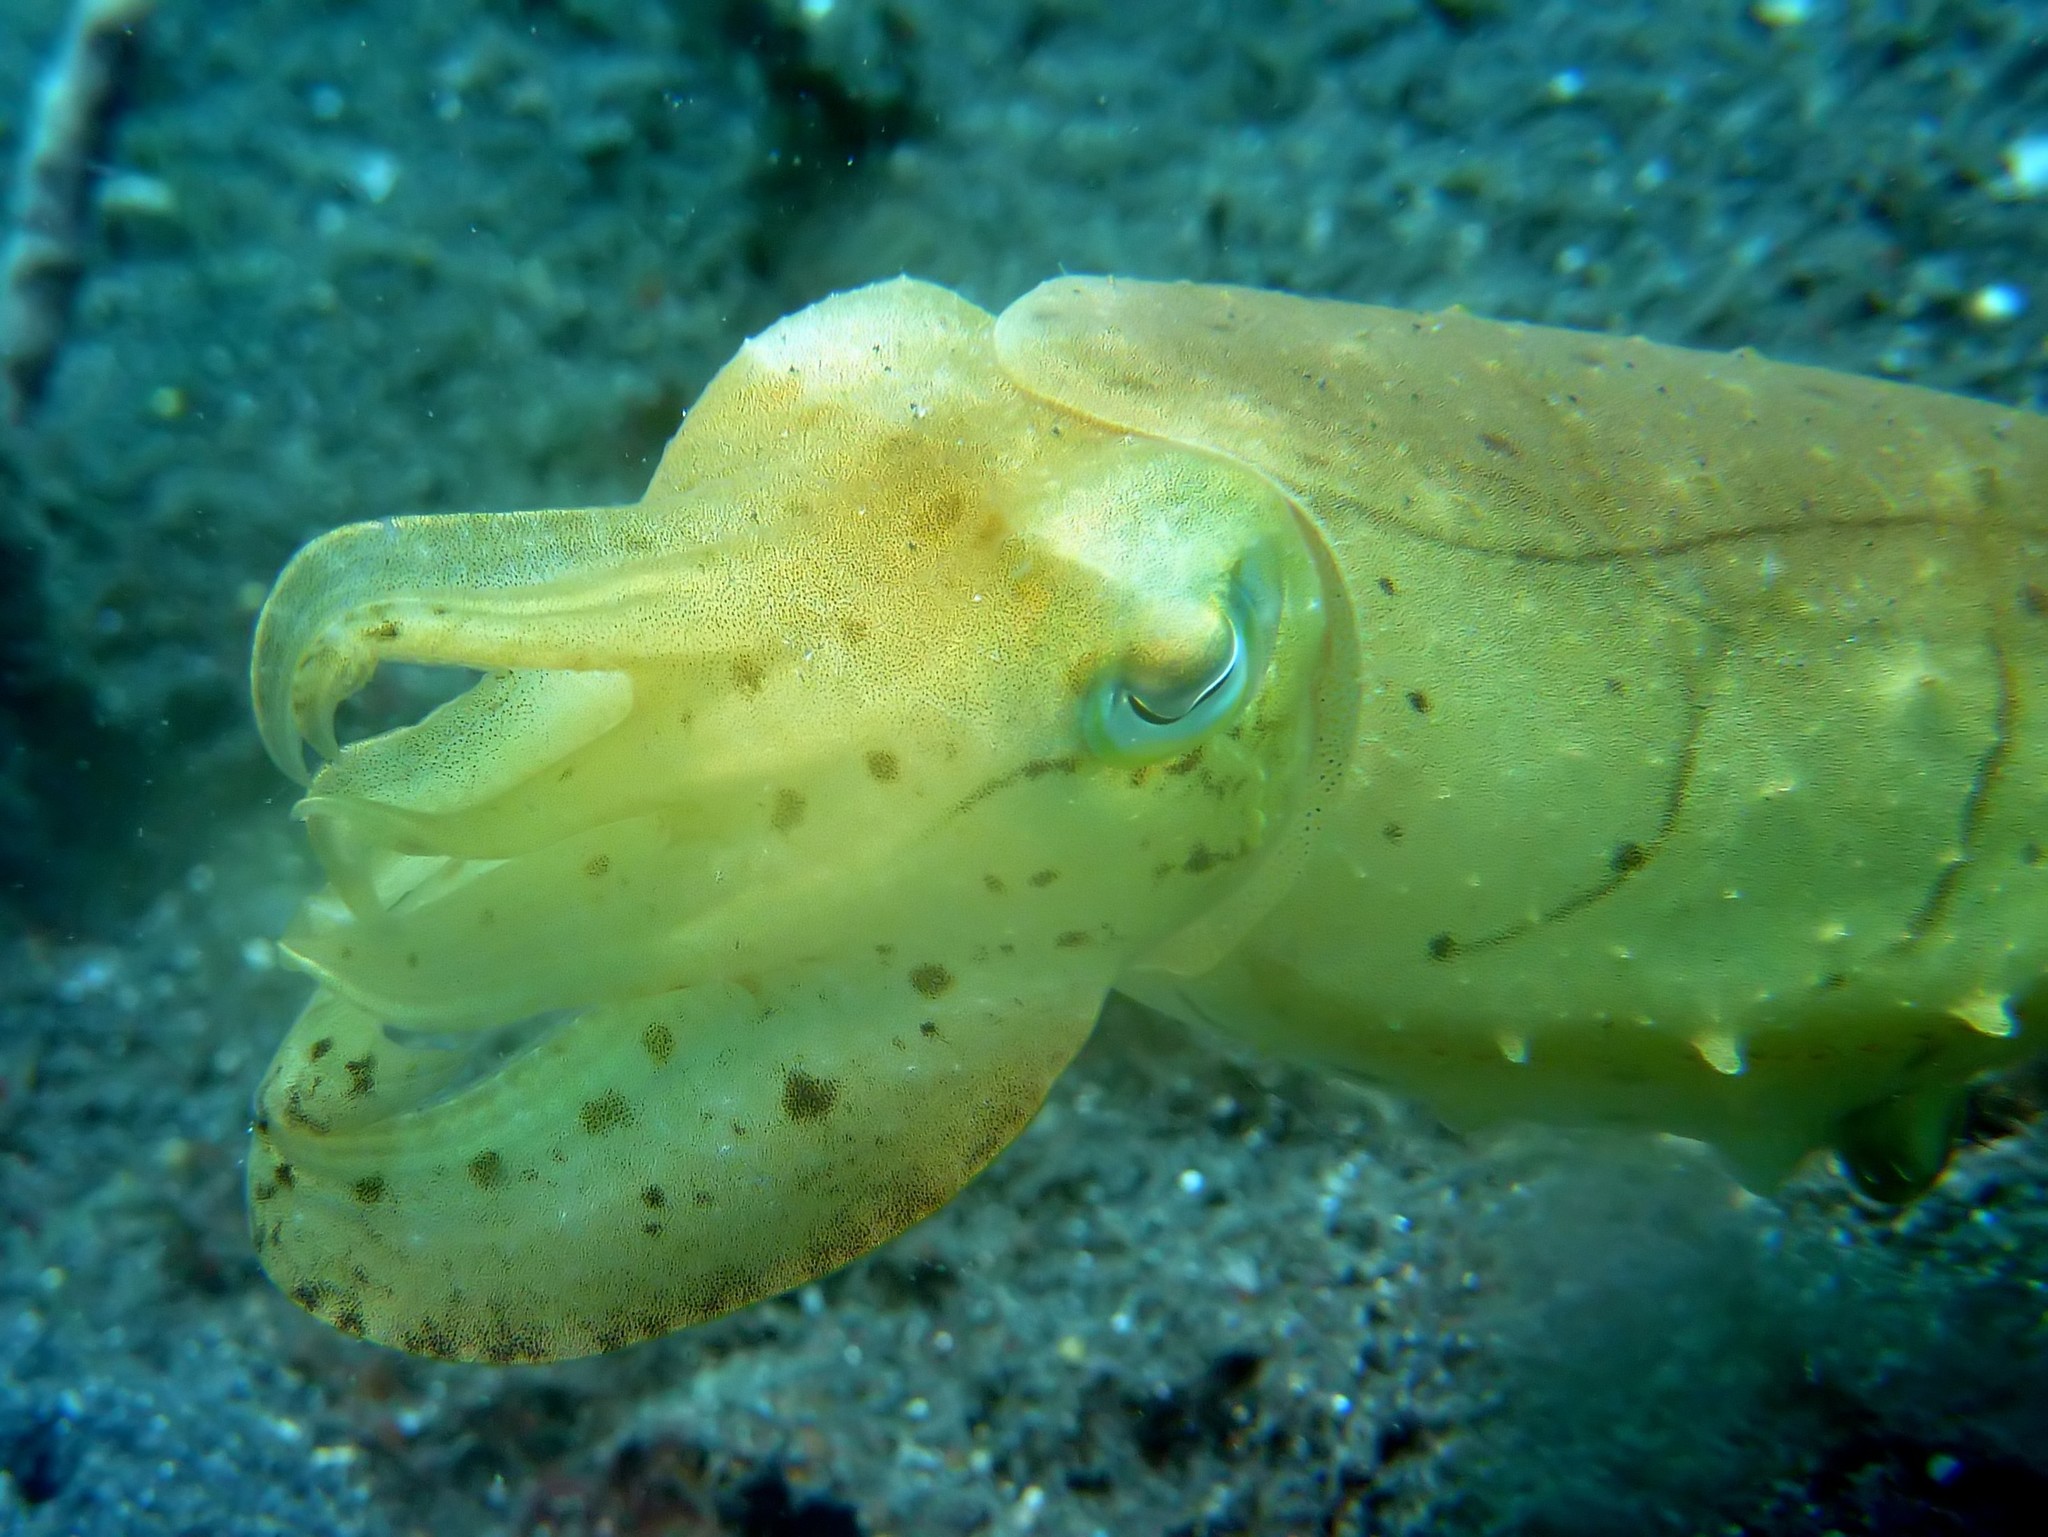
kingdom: Animalia
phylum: Mollusca
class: Cephalopoda
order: Sepiida
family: Sepiidae
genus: Ascarosepion
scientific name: Ascarosepion latimanus
